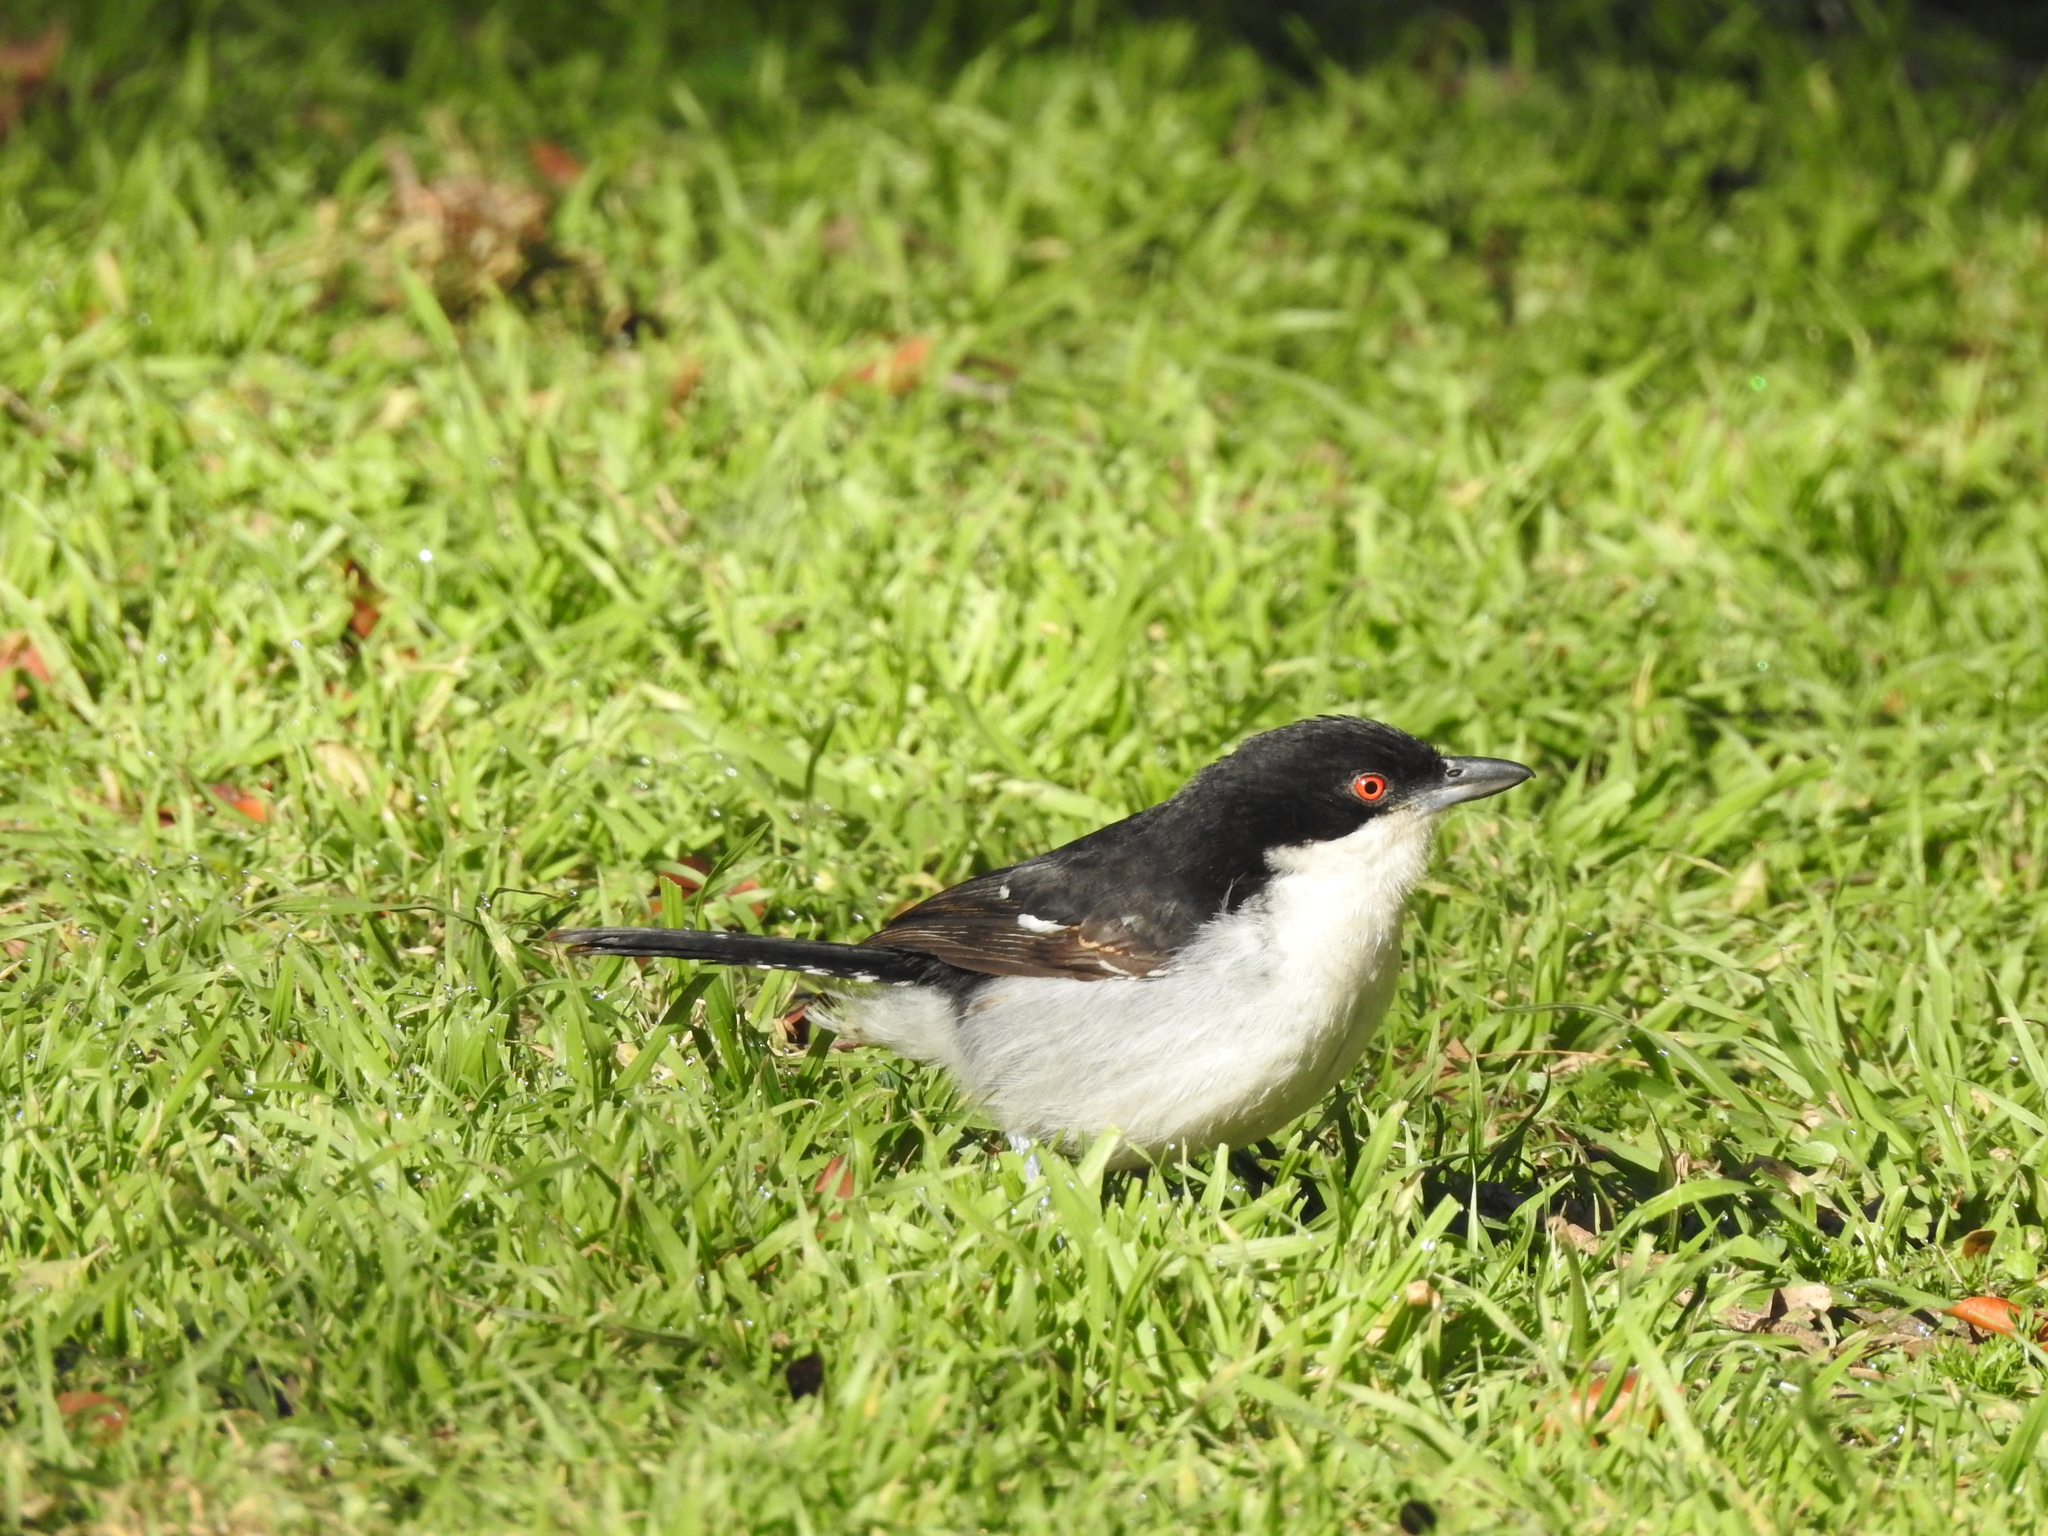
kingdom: Animalia
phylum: Chordata
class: Aves
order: Passeriformes
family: Thamnophilidae
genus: Taraba
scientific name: Taraba major
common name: Great antshrike
